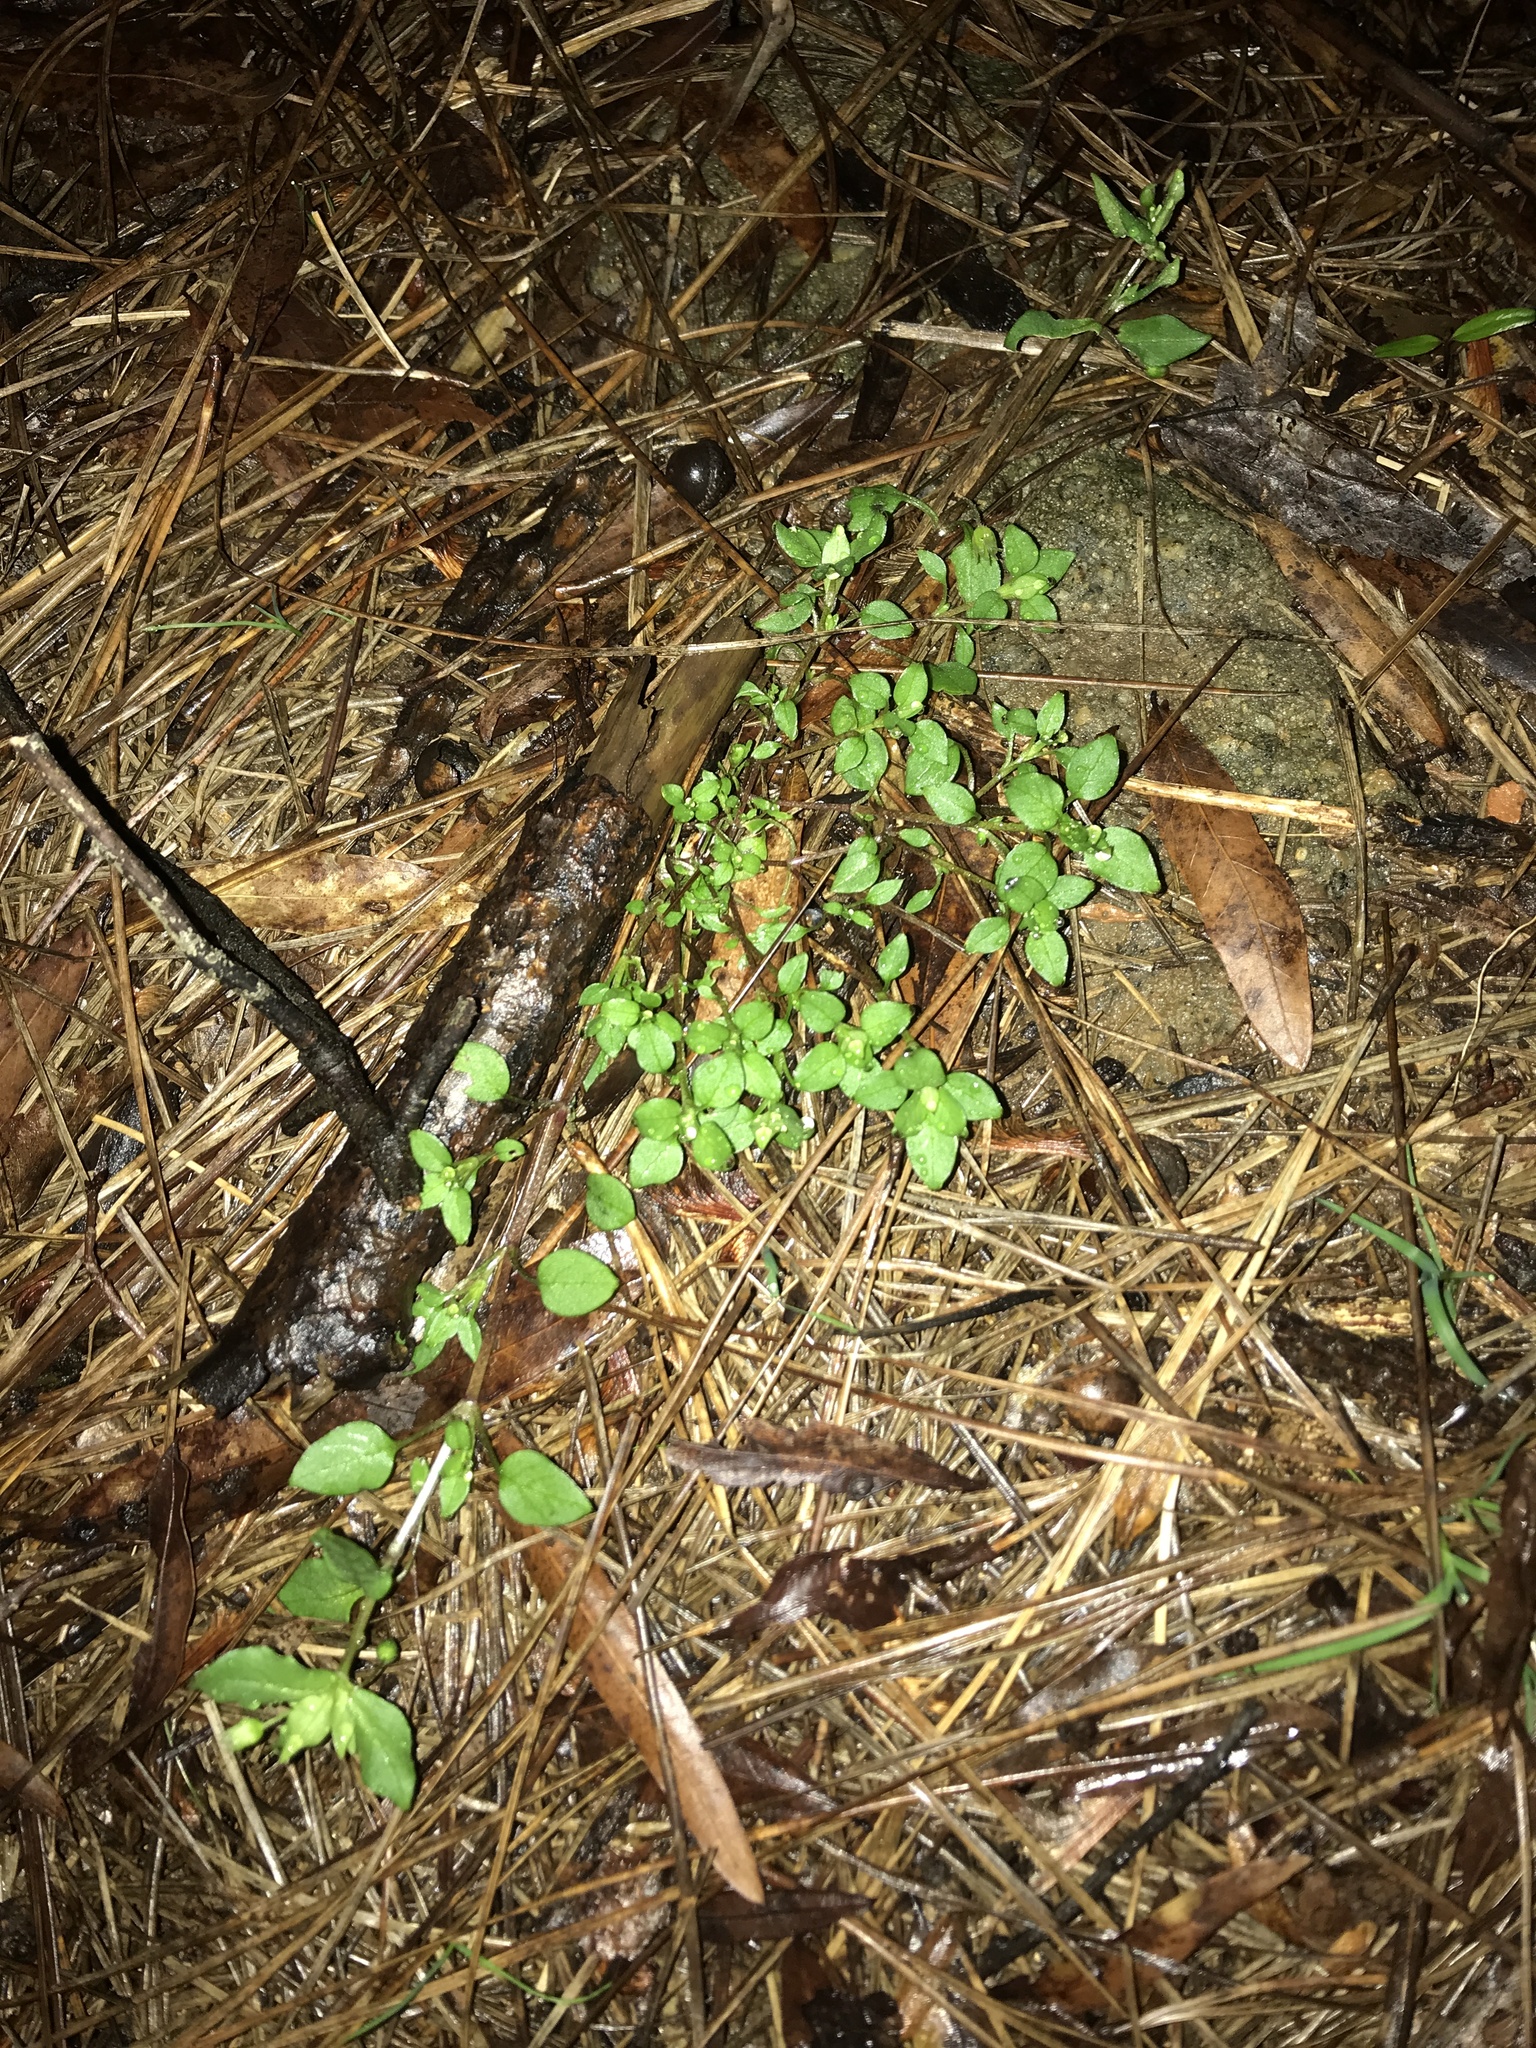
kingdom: Plantae
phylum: Tracheophyta
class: Magnoliopsida
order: Caryophyllales
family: Caryophyllaceae
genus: Stellaria
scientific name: Stellaria media
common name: Common chickweed
